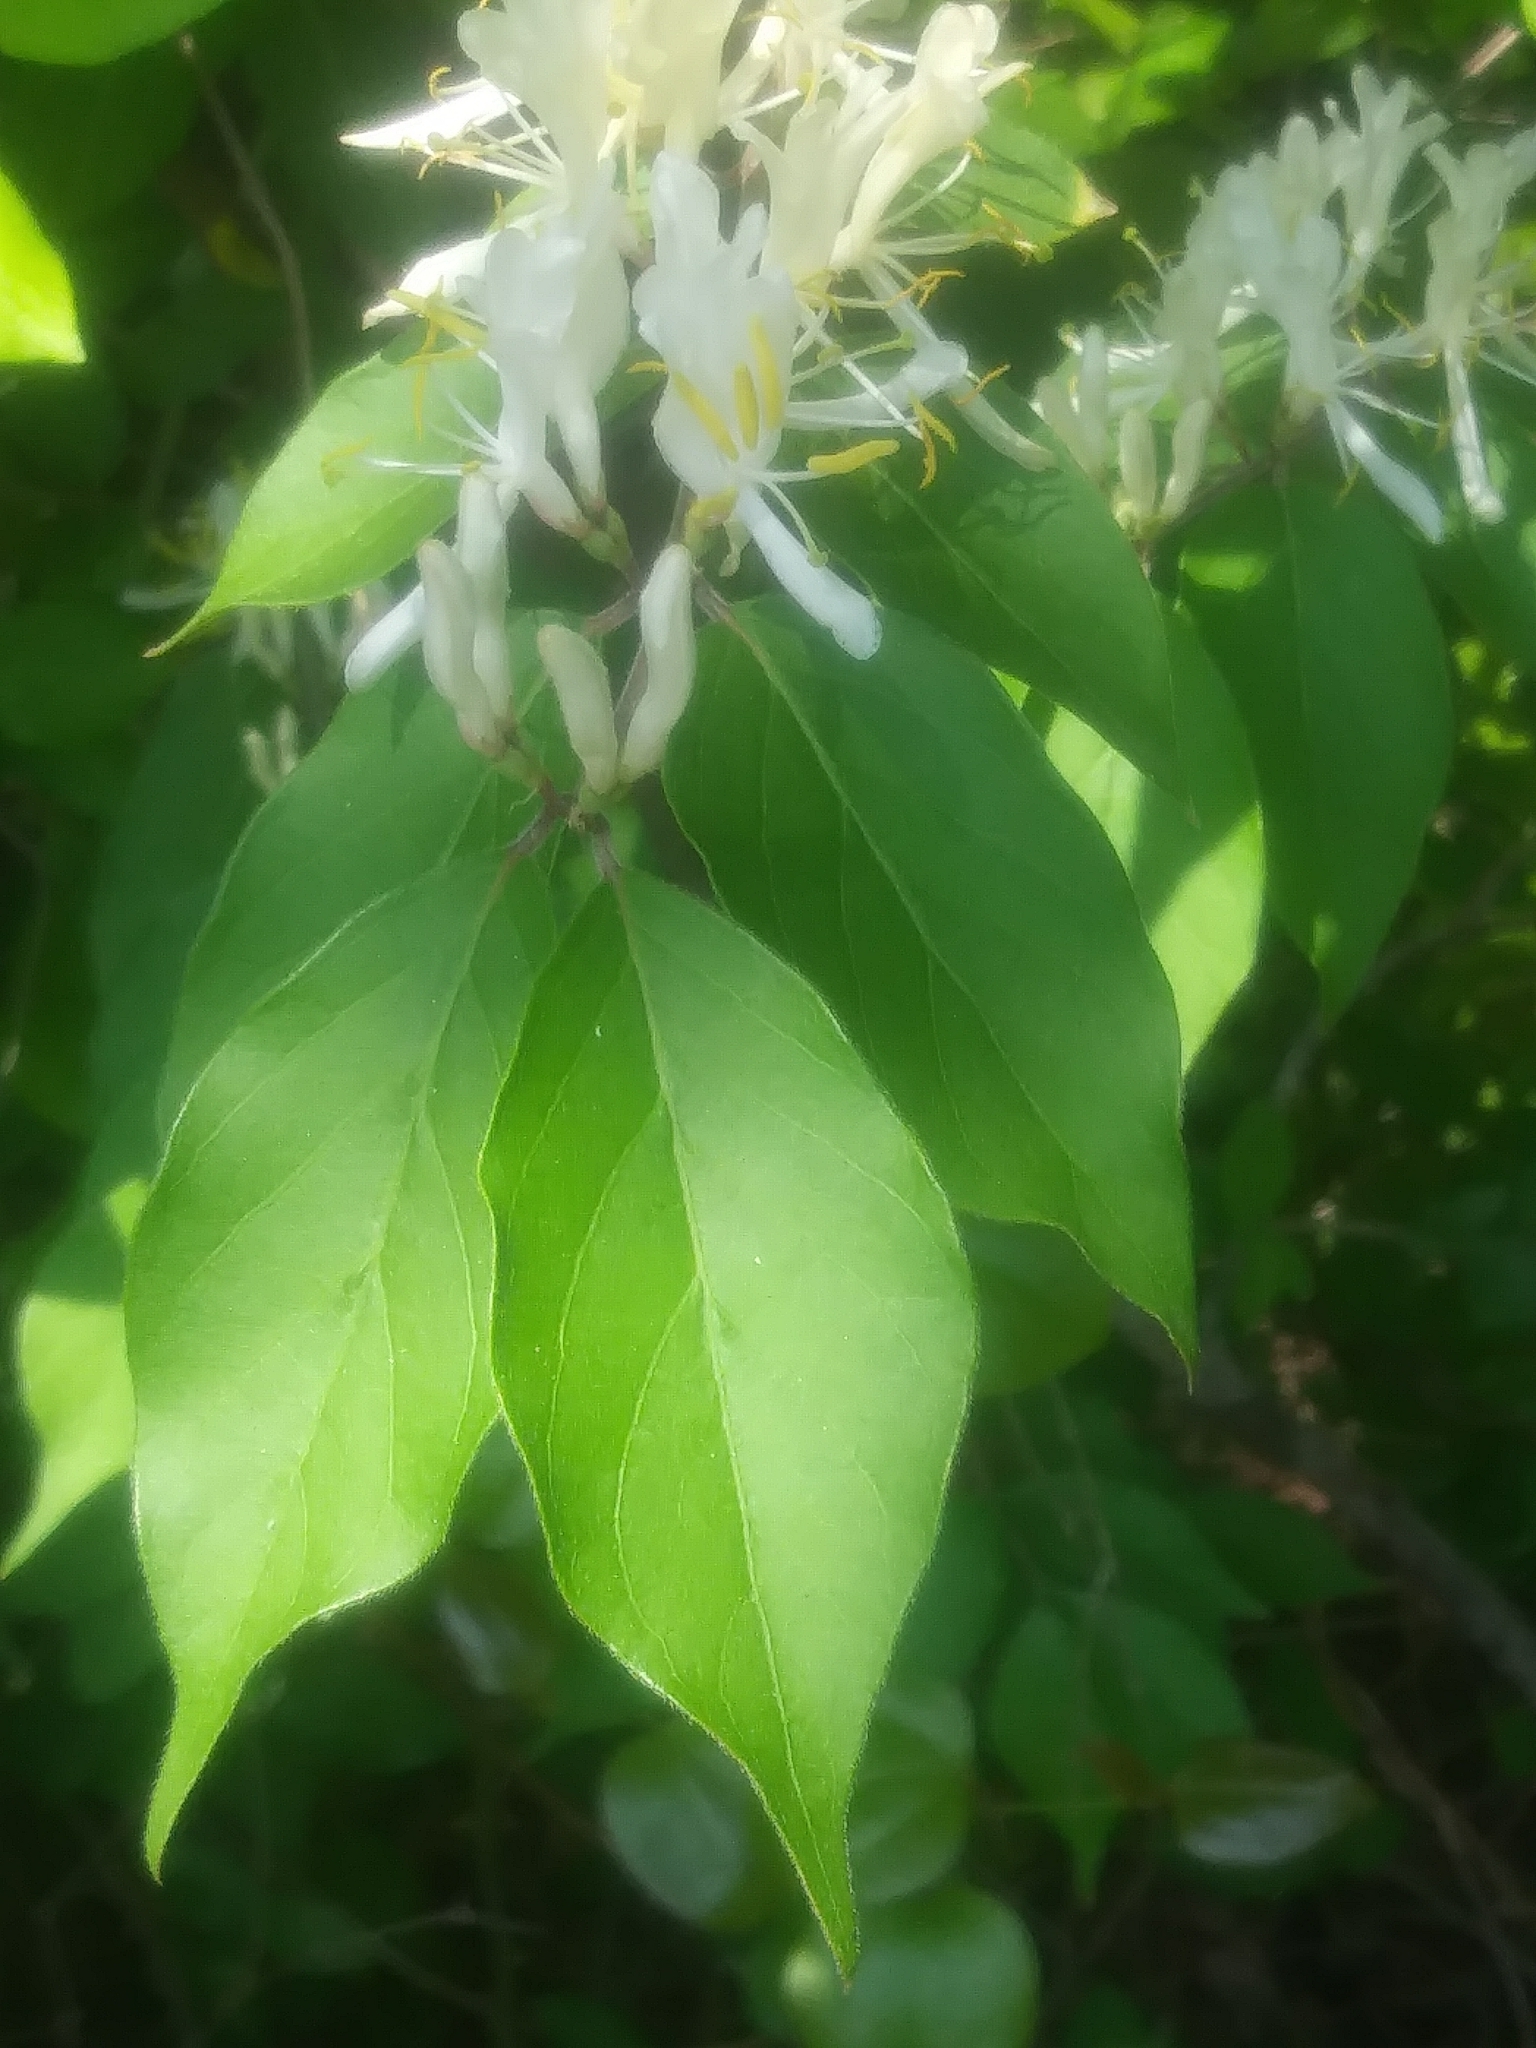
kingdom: Plantae
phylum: Tracheophyta
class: Magnoliopsida
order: Dipsacales
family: Caprifoliaceae
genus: Lonicera
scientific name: Lonicera maackii
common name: Amur honeysuckle
